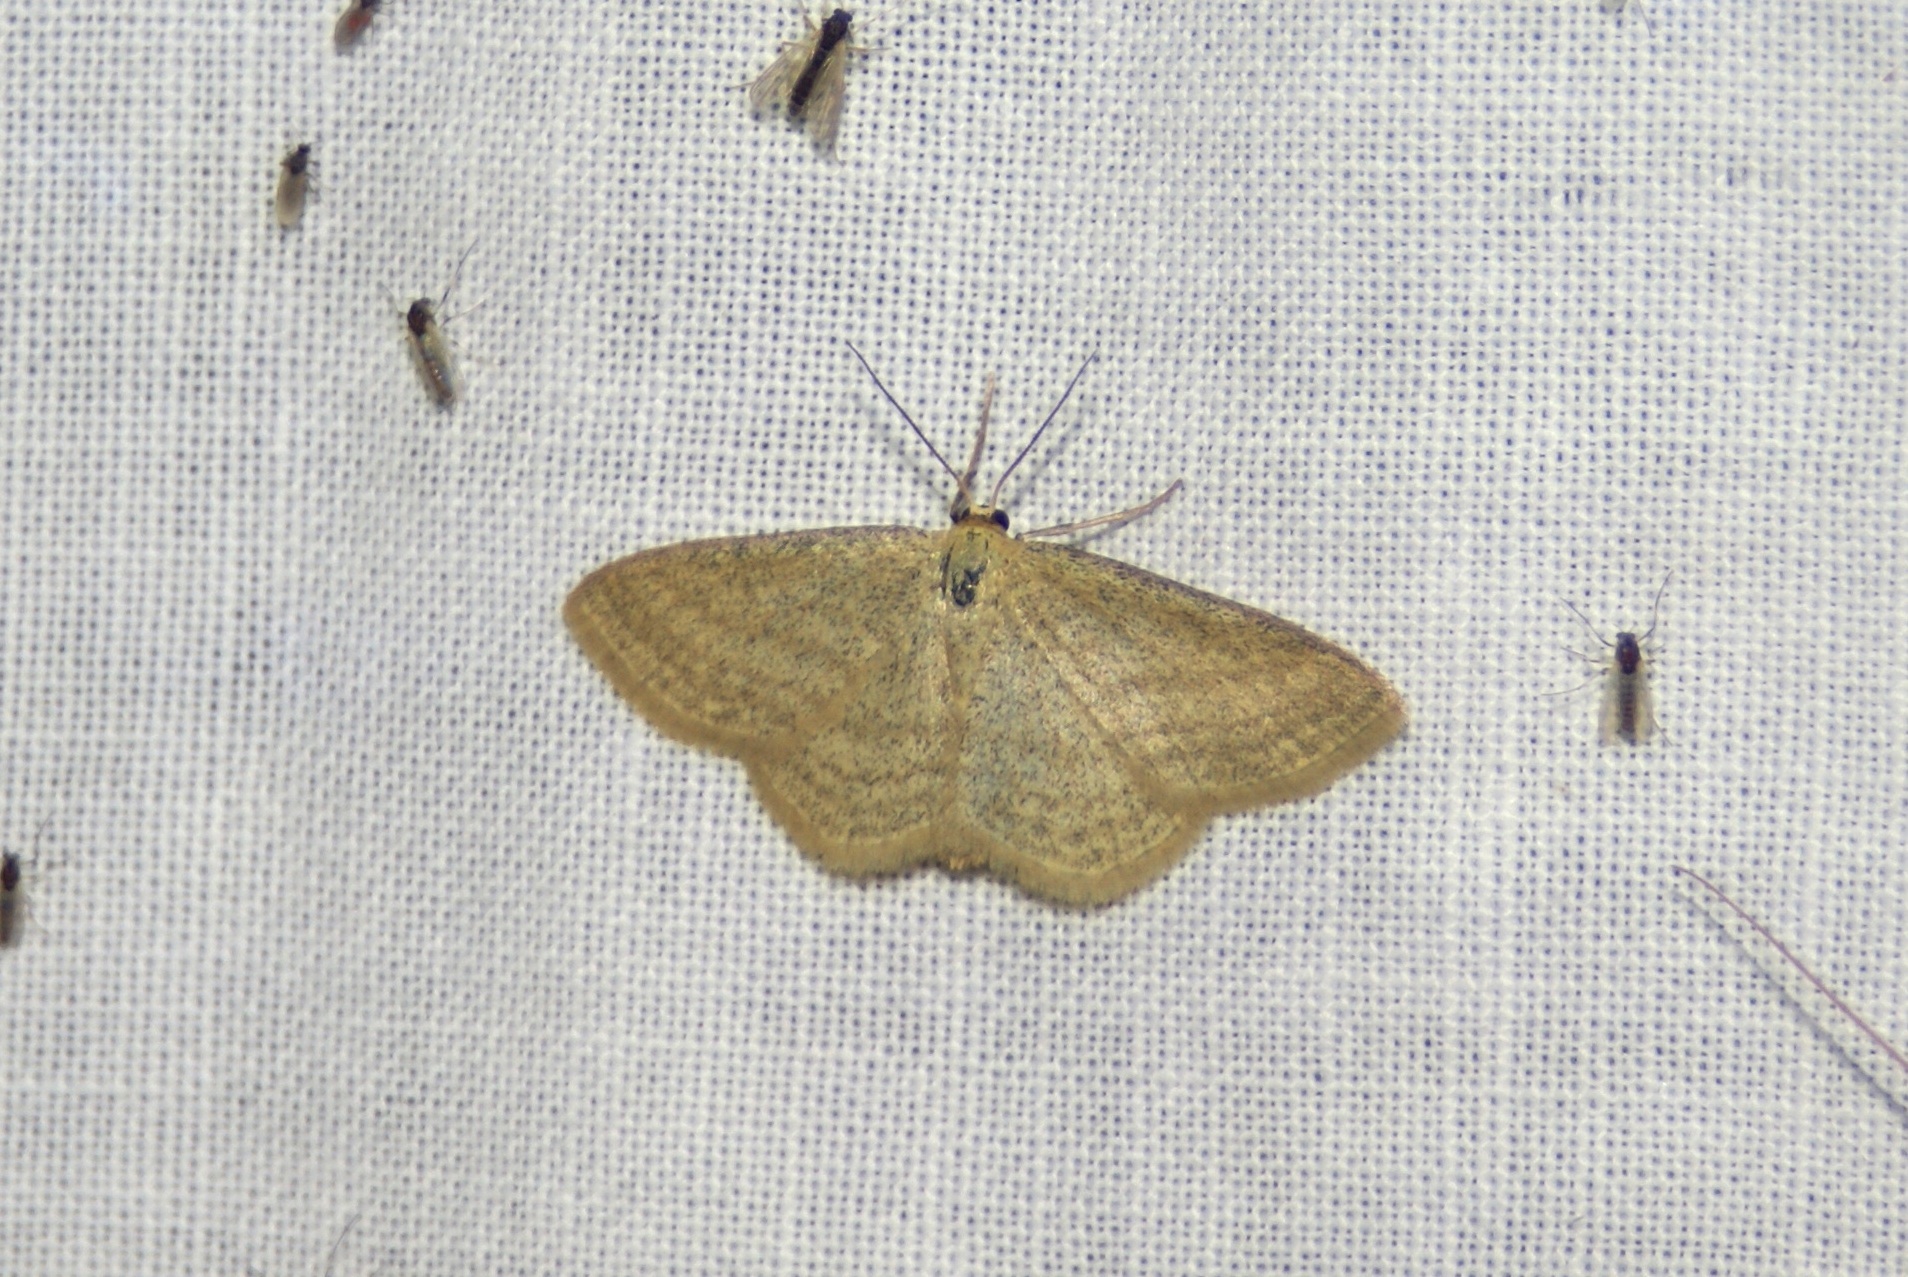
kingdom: Animalia
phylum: Arthropoda
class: Insecta
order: Lepidoptera
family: Geometridae
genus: Scopula
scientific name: Scopula virgulata
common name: Streaked wave
